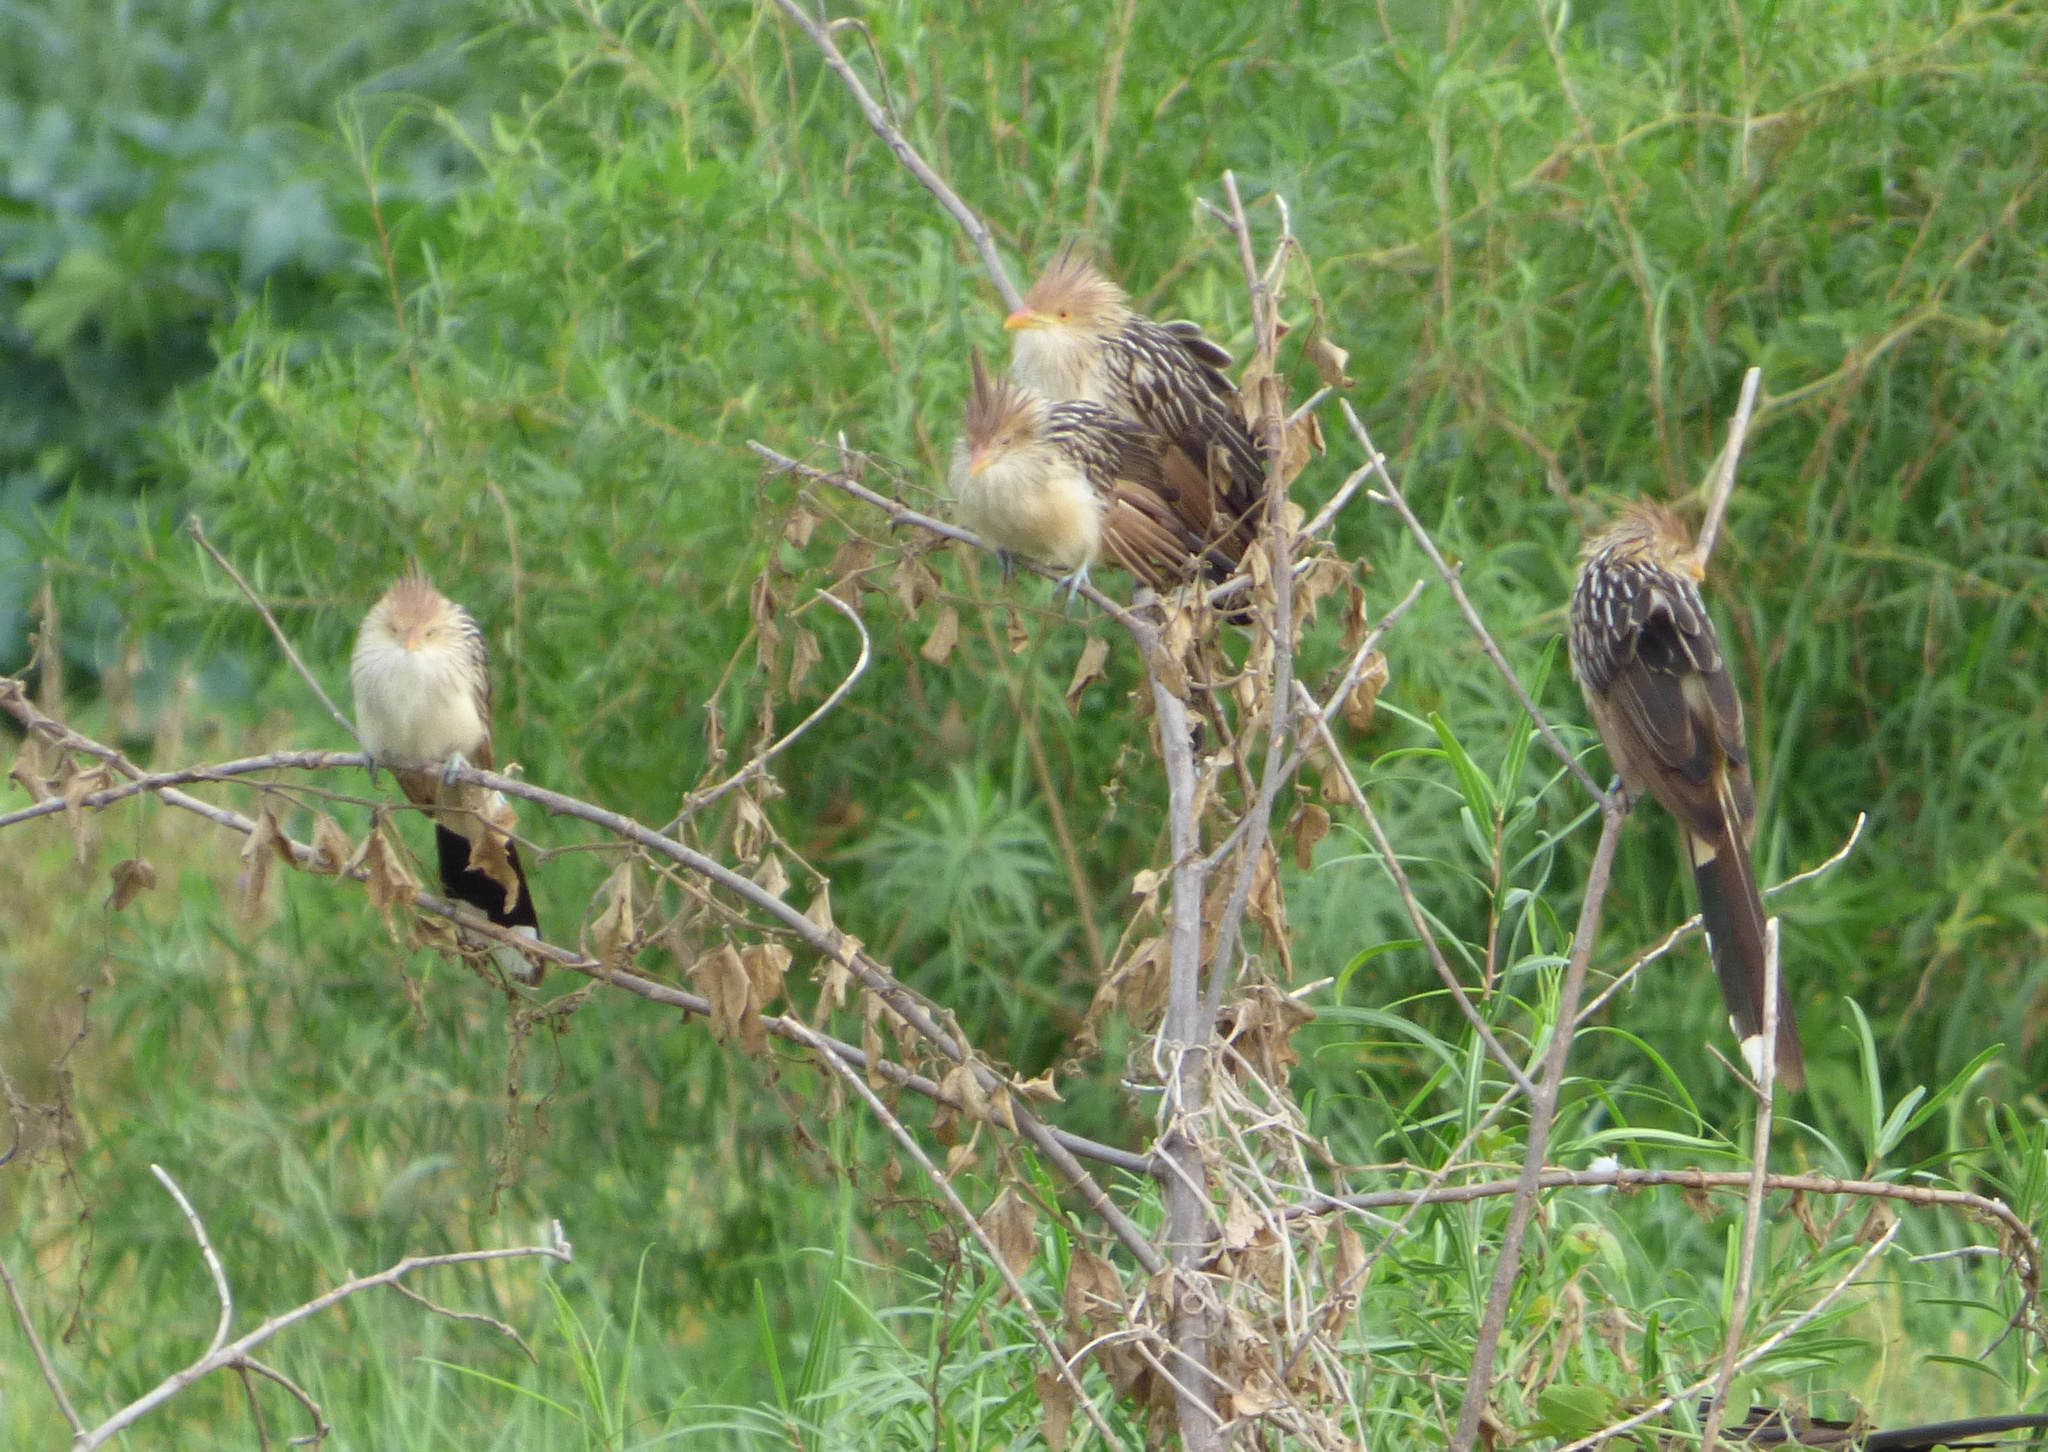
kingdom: Animalia
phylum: Chordata
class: Aves
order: Cuculiformes
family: Cuculidae
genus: Guira
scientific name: Guira guira
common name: Guira cuckoo
